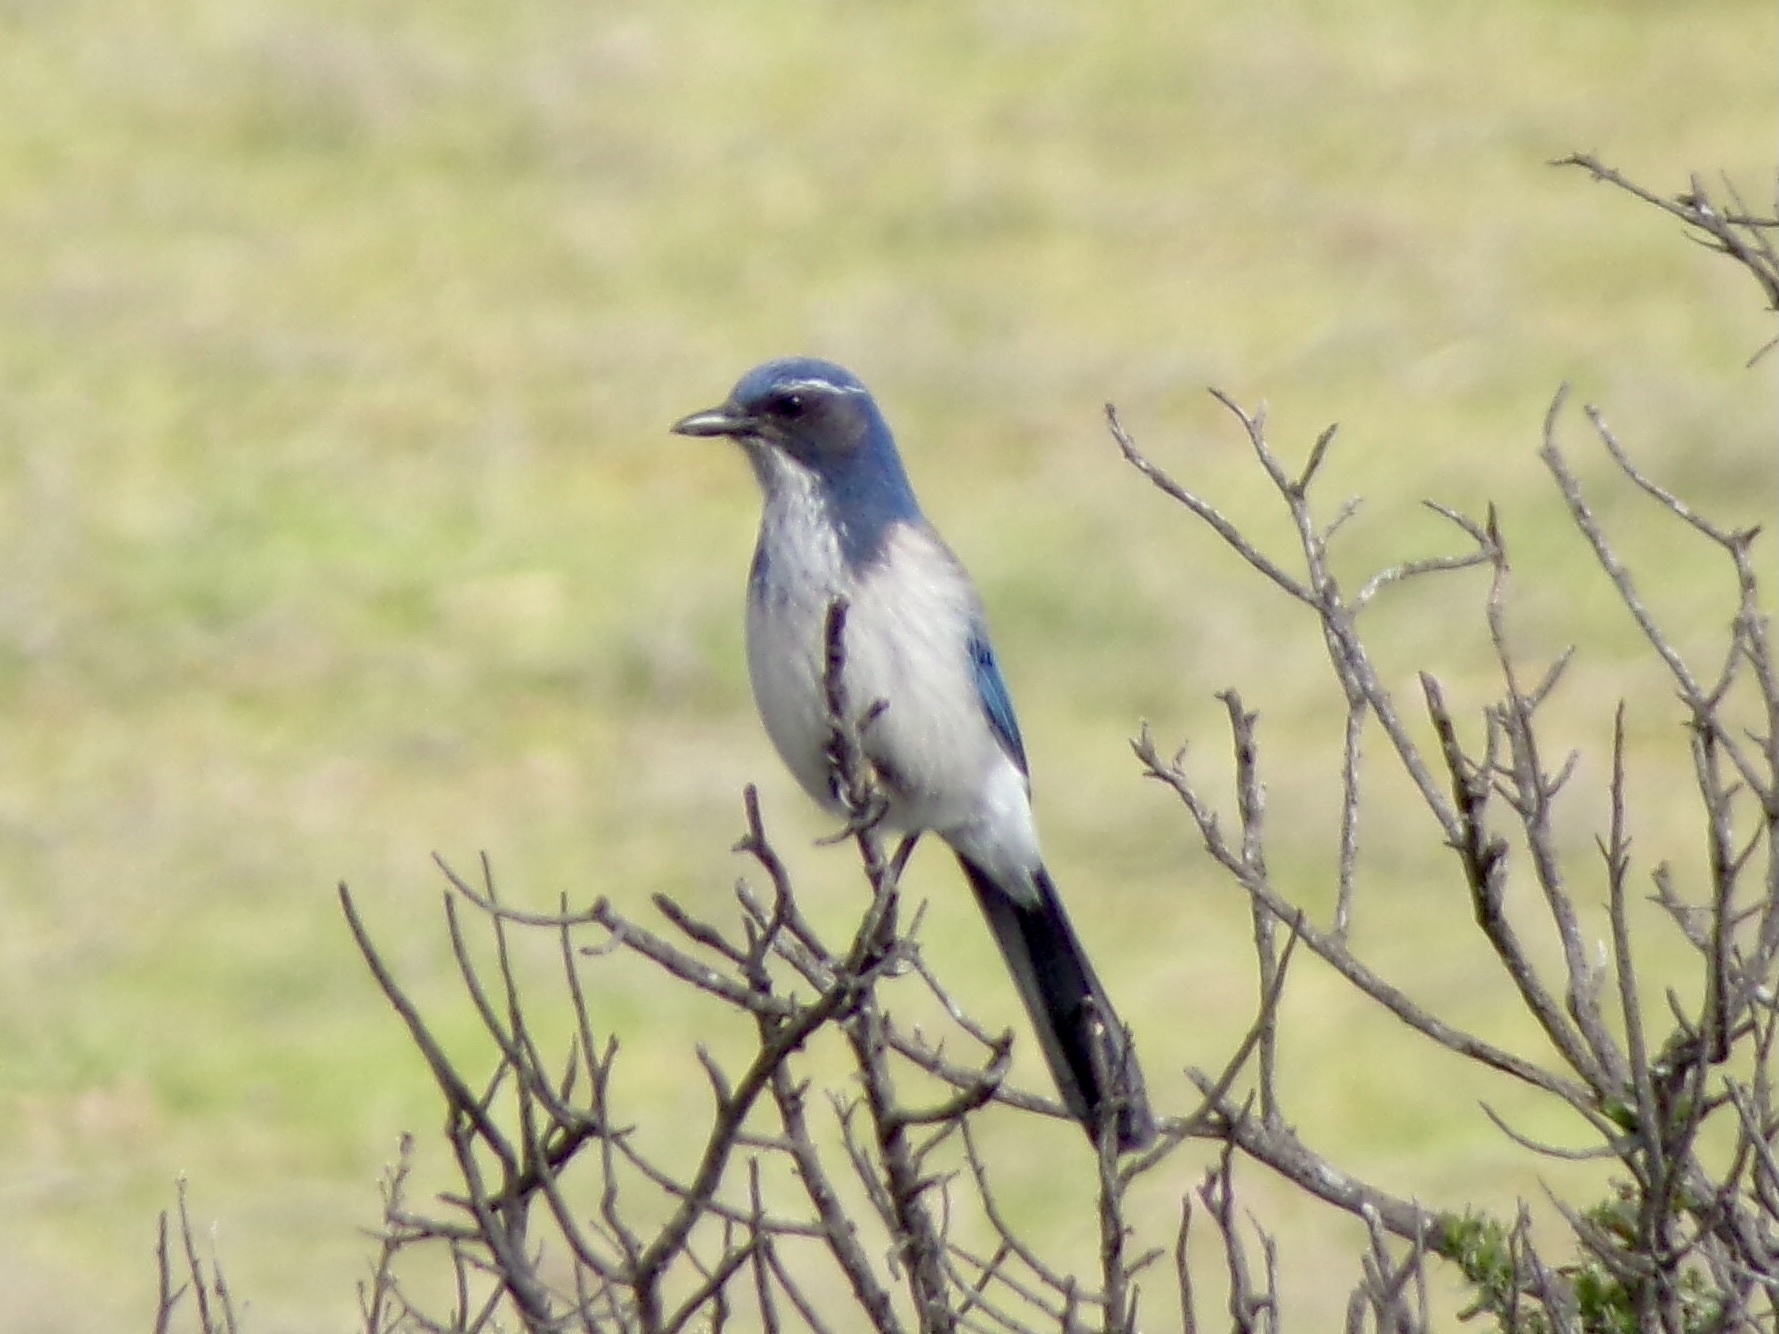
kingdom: Animalia
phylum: Chordata
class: Aves
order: Passeriformes
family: Corvidae
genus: Aphelocoma
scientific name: Aphelocoma californica
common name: California scrub-jay
